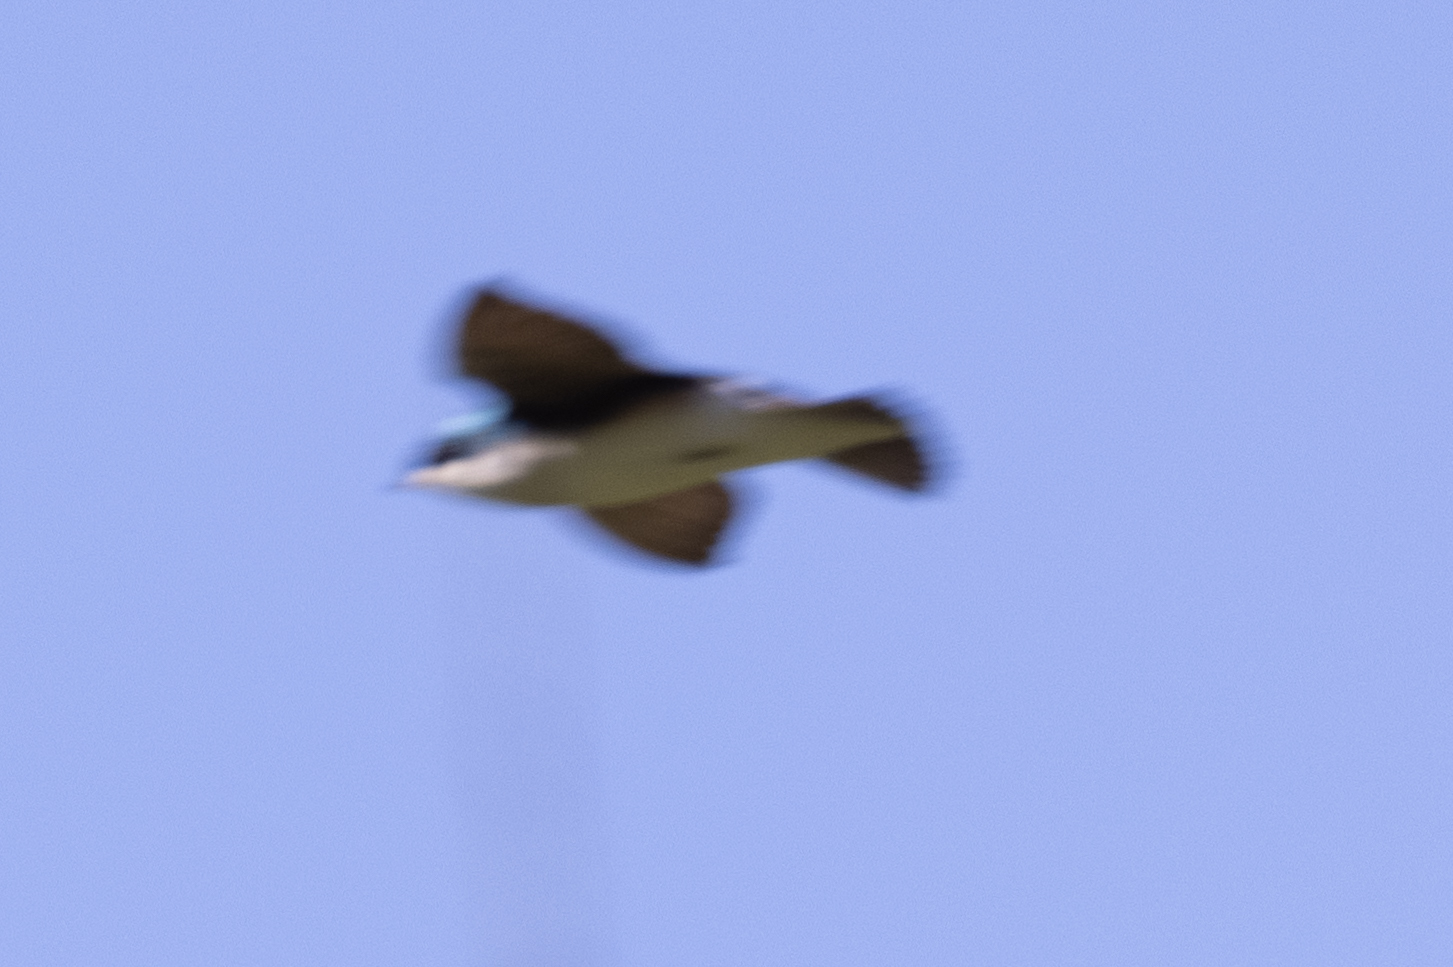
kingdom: Animalia
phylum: Chordata
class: Aves
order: Passeriformes
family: Hirundinidae
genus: Tachycineta
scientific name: Tachycineta bicolor
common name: Tree swallow
